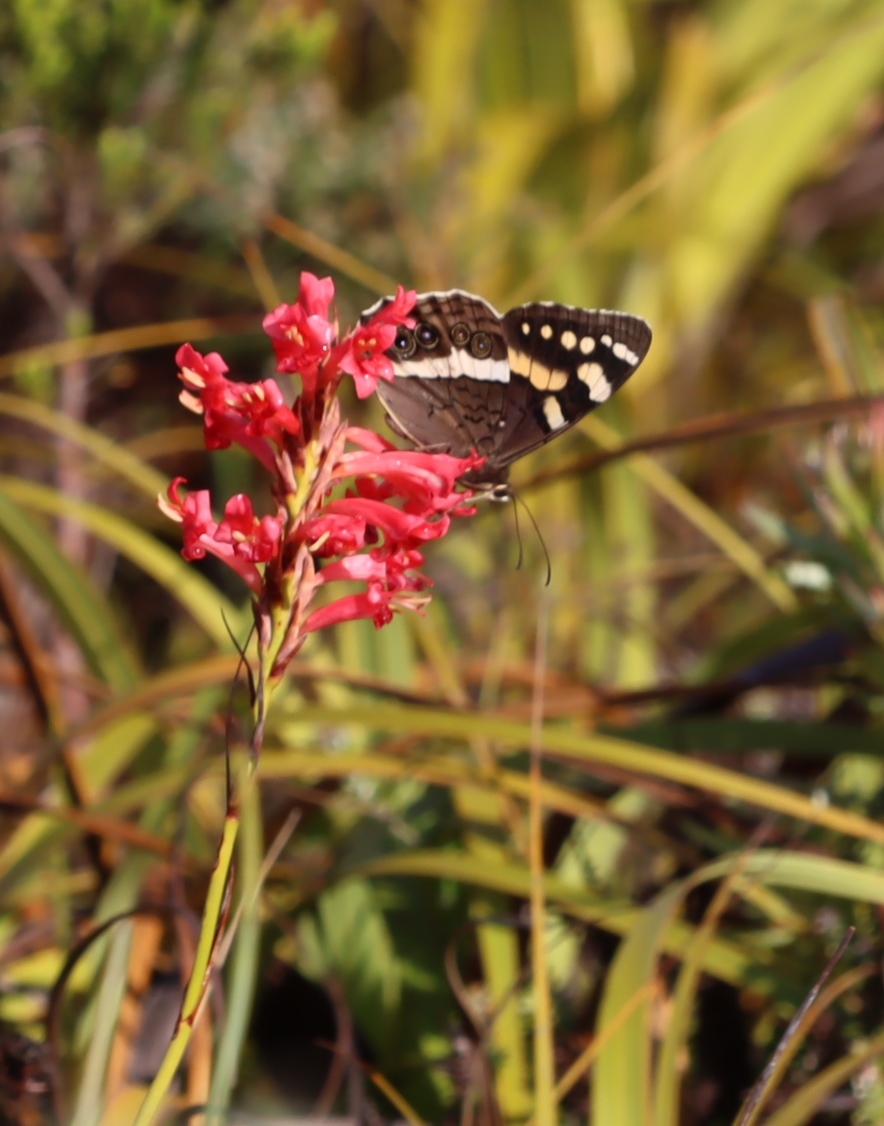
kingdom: Animalia
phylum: Arthropoda
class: Insecta
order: Lepidoptera
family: Nymphalidae
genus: Meneris
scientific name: Meneris Aeropetes tulbaghia
